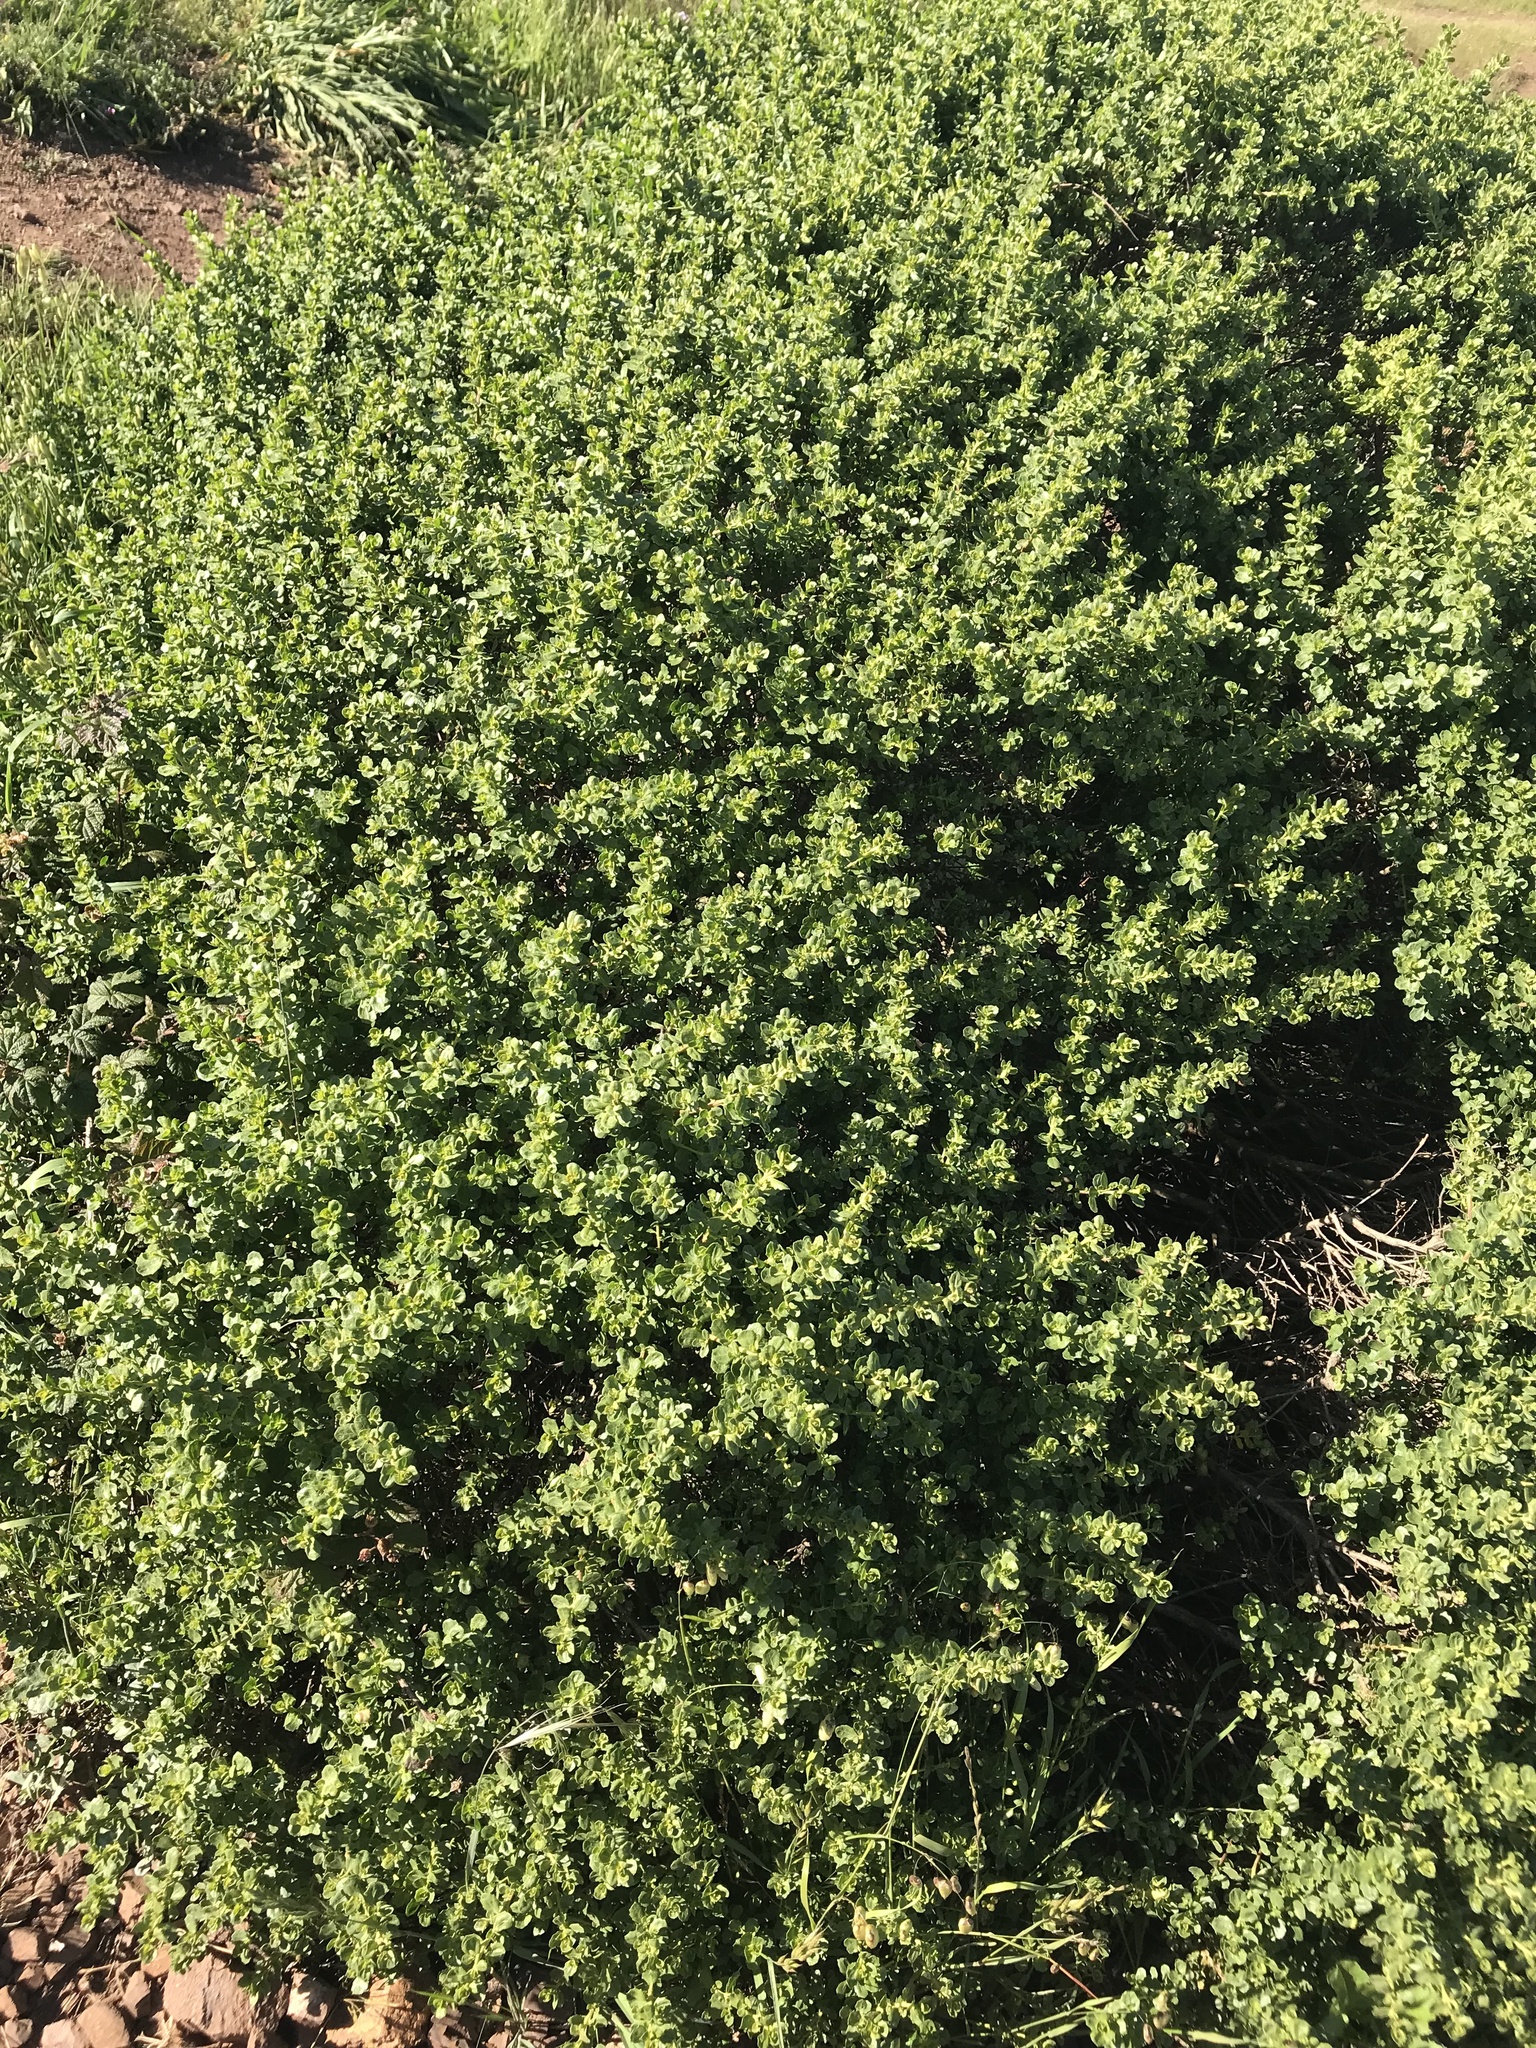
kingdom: Plantae
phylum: Tracheophyta
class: Magnoliopsida
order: Asterales
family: Asteraceae
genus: Baccharis
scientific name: Baccharis pilularis
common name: Coyotebrush
